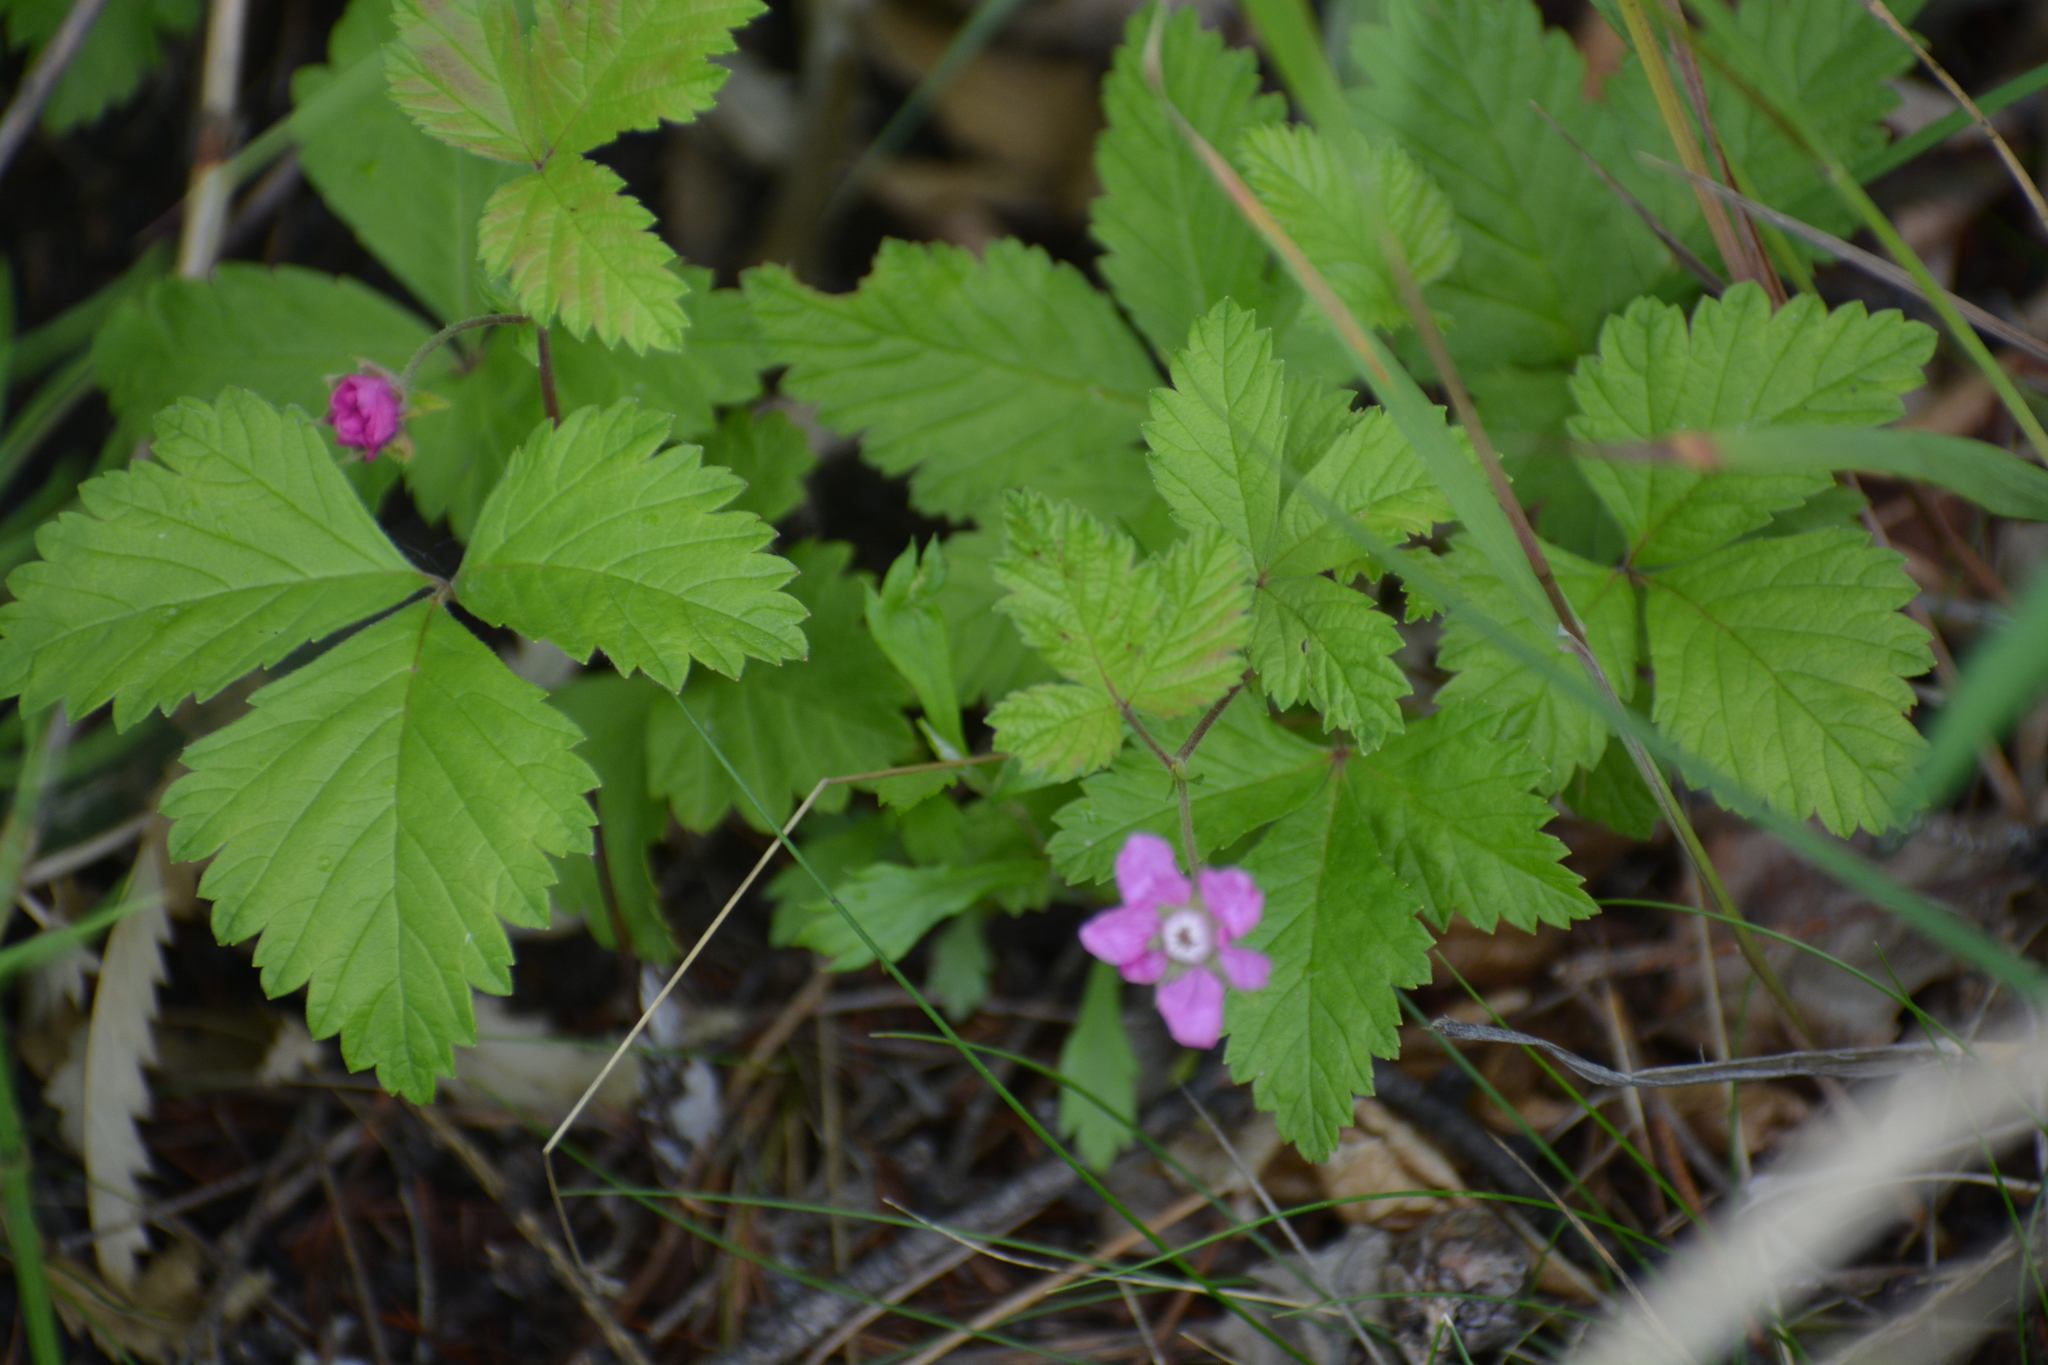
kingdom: Plantae
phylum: Tracheophyta
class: Magnoliopsida
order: Rosales
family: Rosaceae
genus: Rubus
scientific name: Rubus arcticus
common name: Arctic bramble
